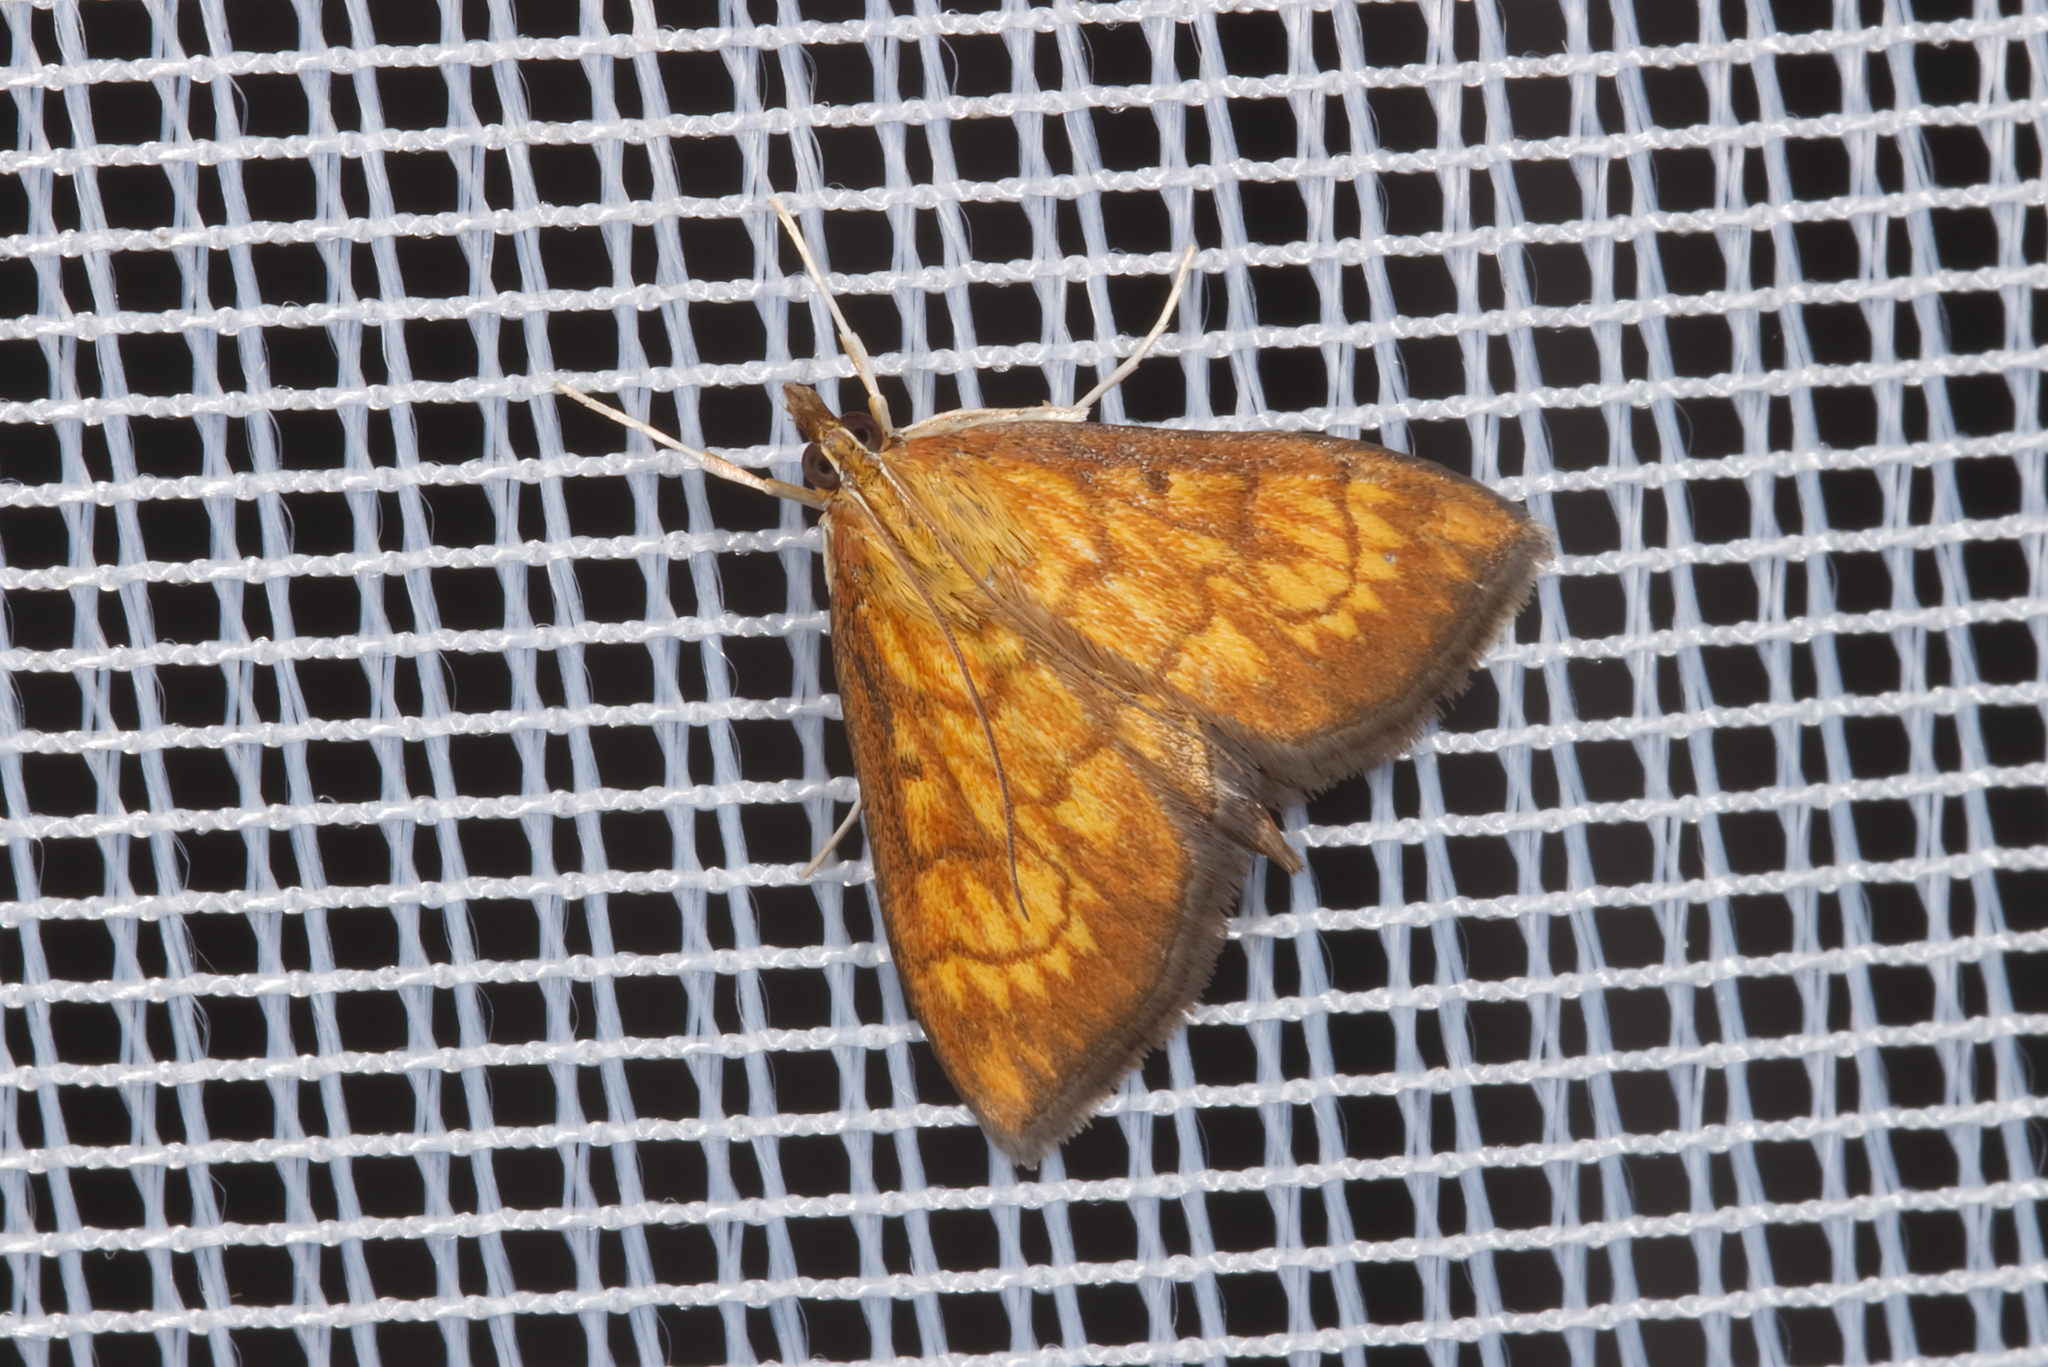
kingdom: Animalia
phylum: Arthropoda
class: Insecta
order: Lepidoptera
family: Crambidae
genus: Ecpyrrhorrhoe
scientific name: Ecpyrrhorrhoe rubiginalis
